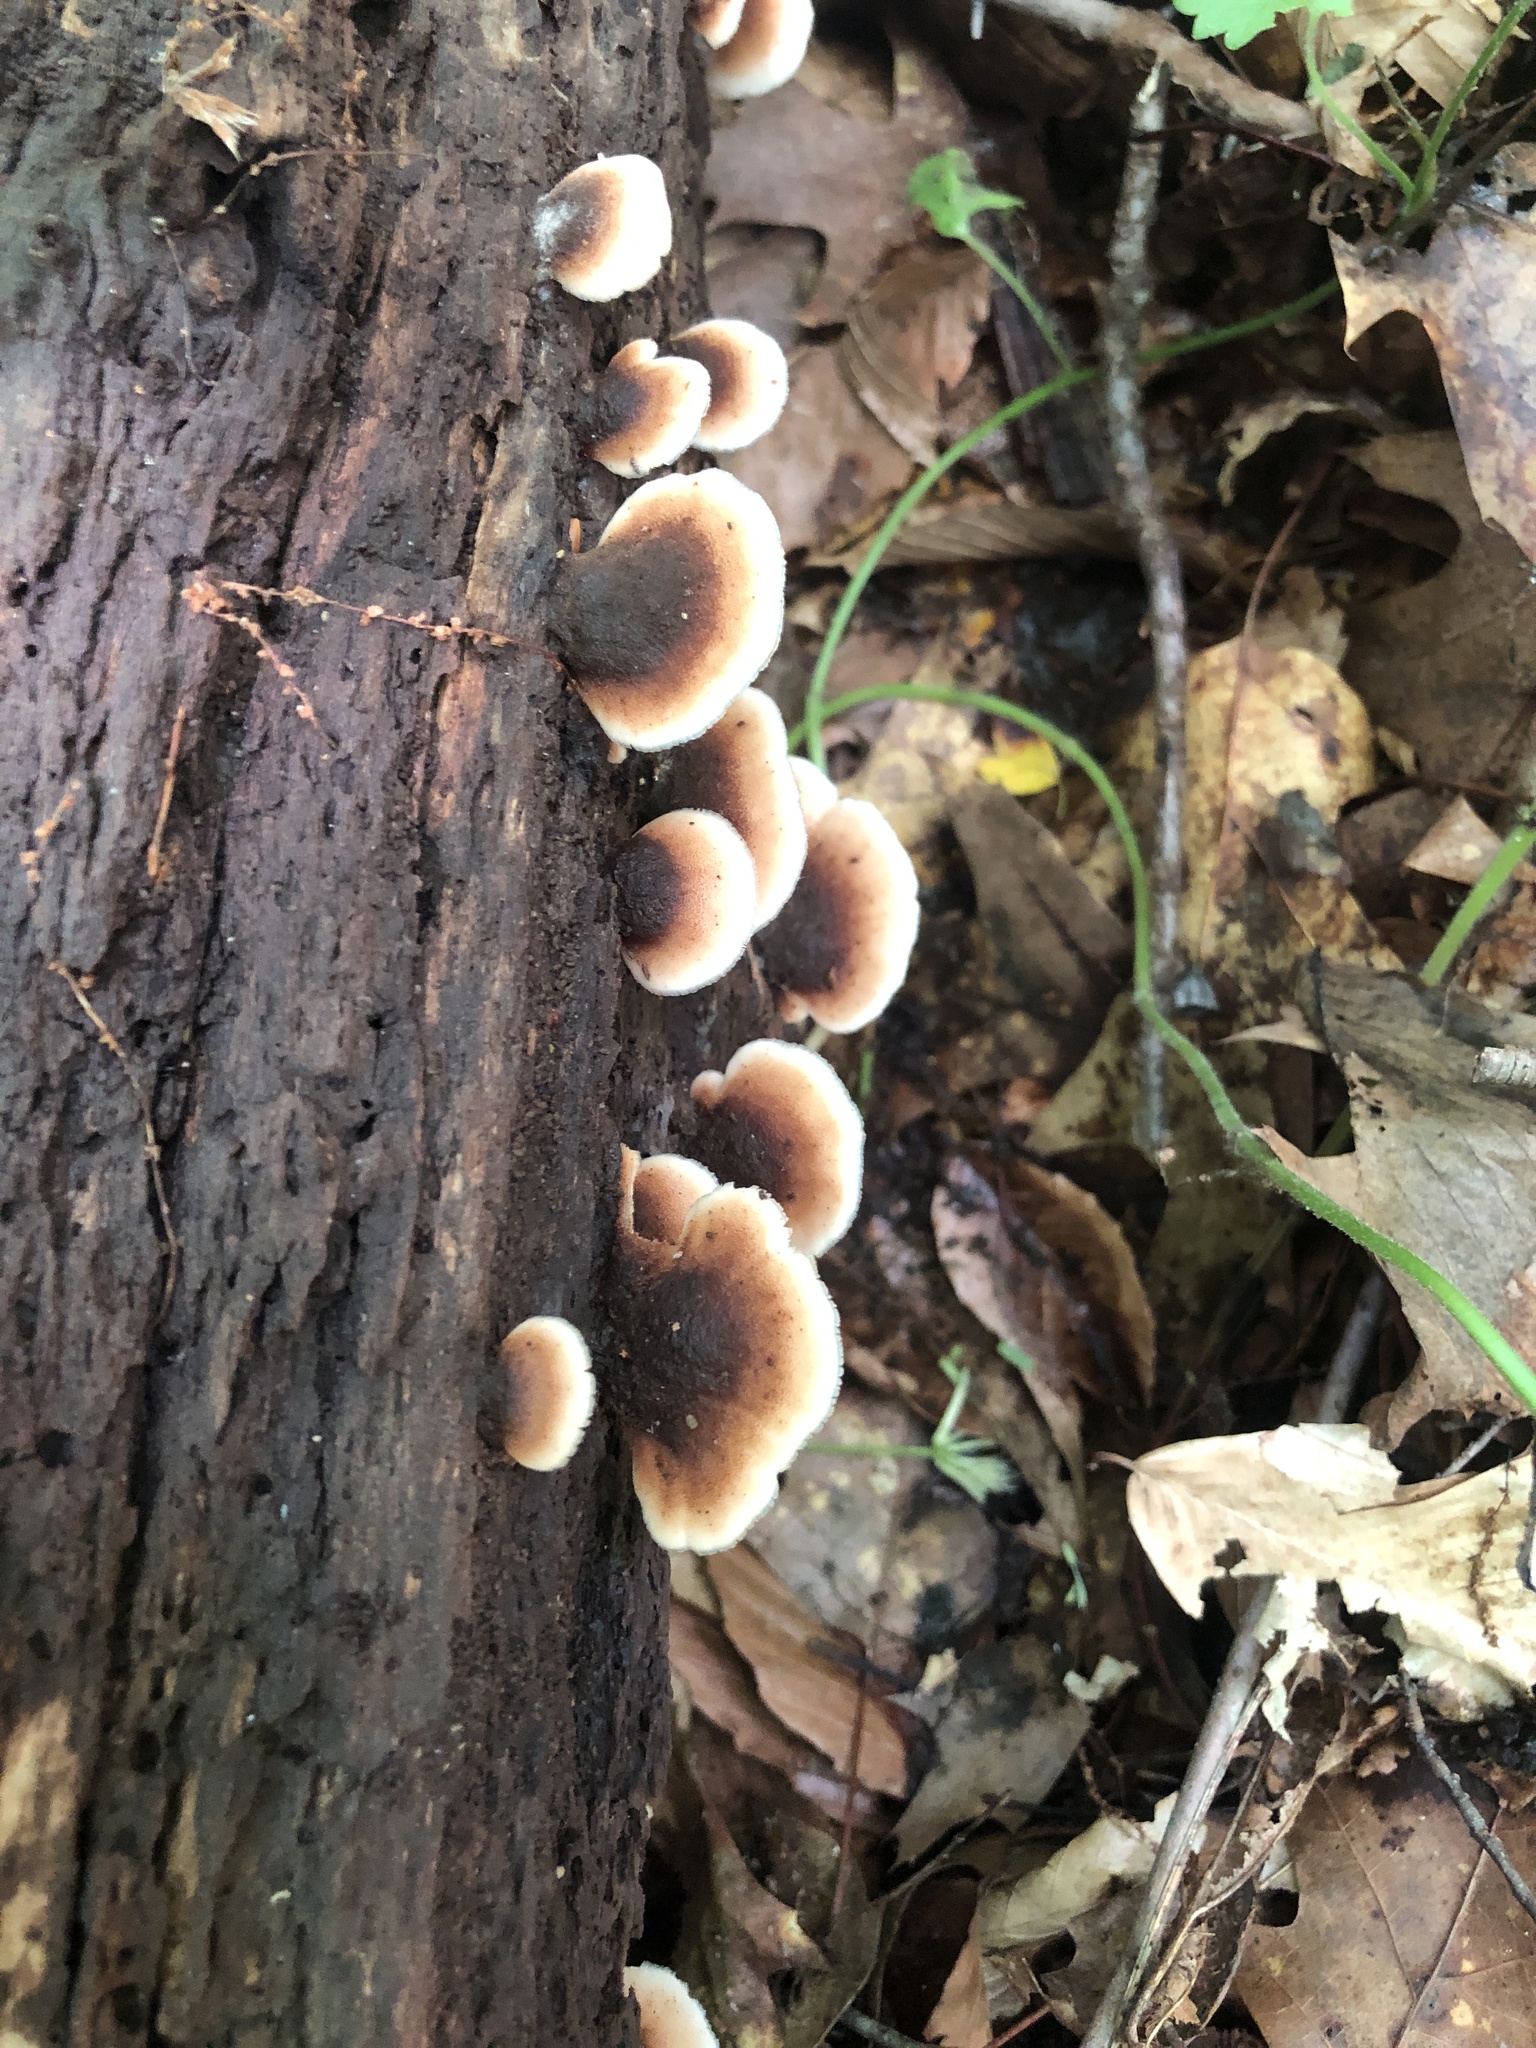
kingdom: Fungi
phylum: Basidiomycota
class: Agaricomycetes
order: Russulales
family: Auriscalpiaceae
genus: Lentinellus
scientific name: Lentinellus ursinus
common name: Bear lentinus
